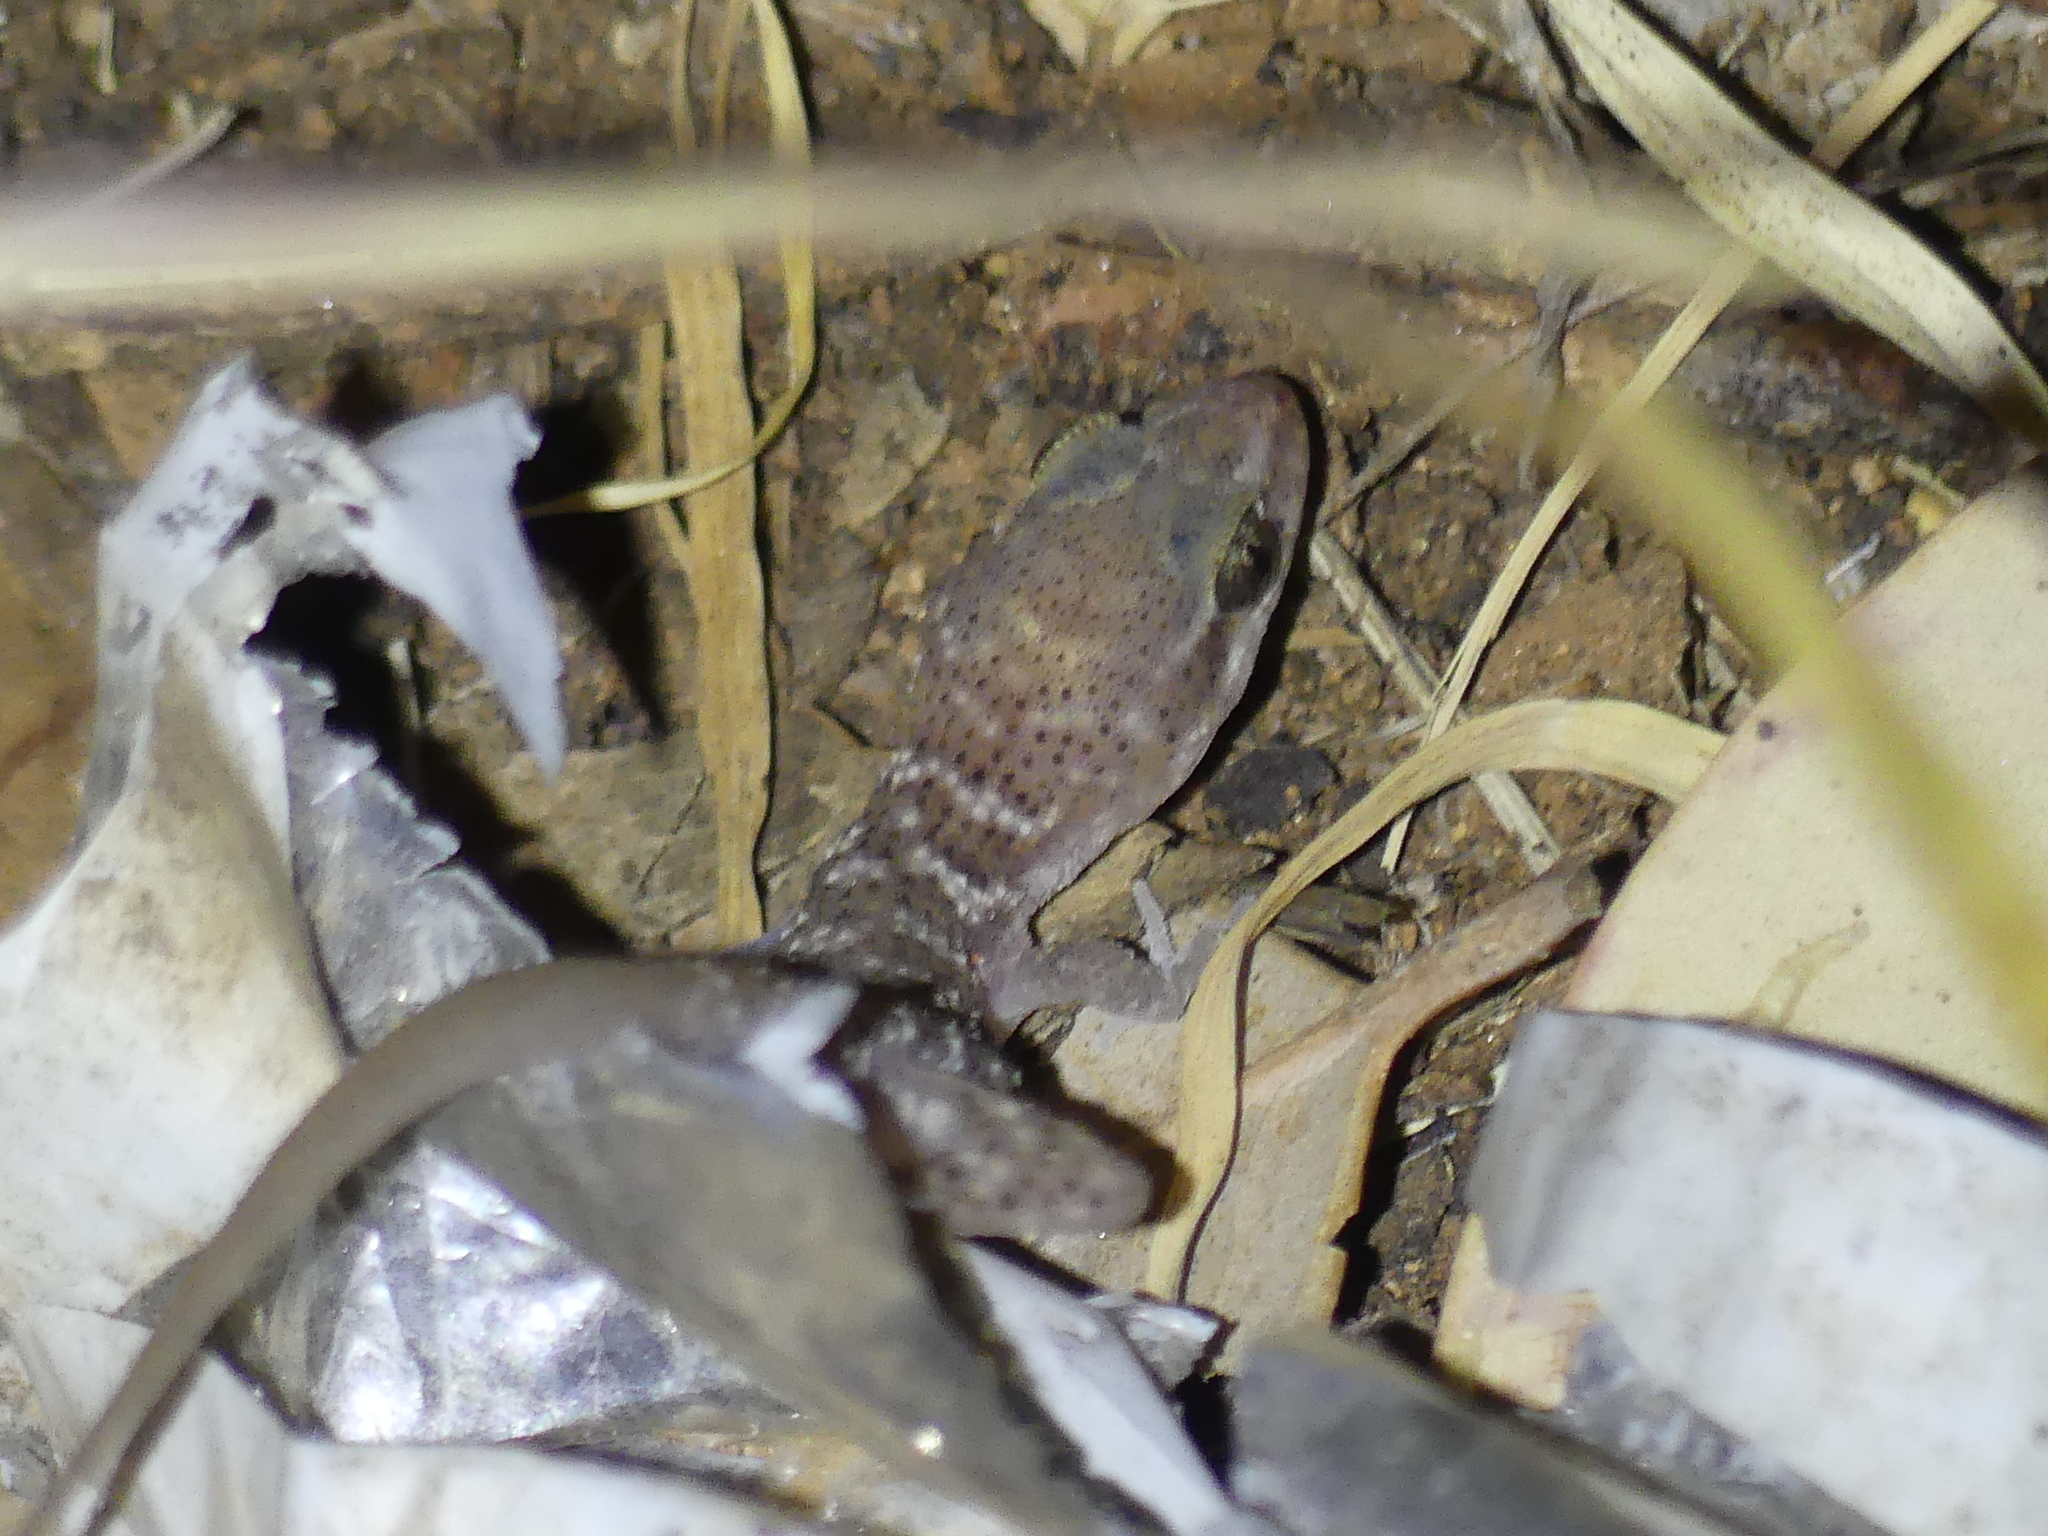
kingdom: Animalia
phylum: Chordata
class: Squamata
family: Gekkonidae
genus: Heteronotia
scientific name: Heteronotia binoei
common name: Bynoe's gecko
